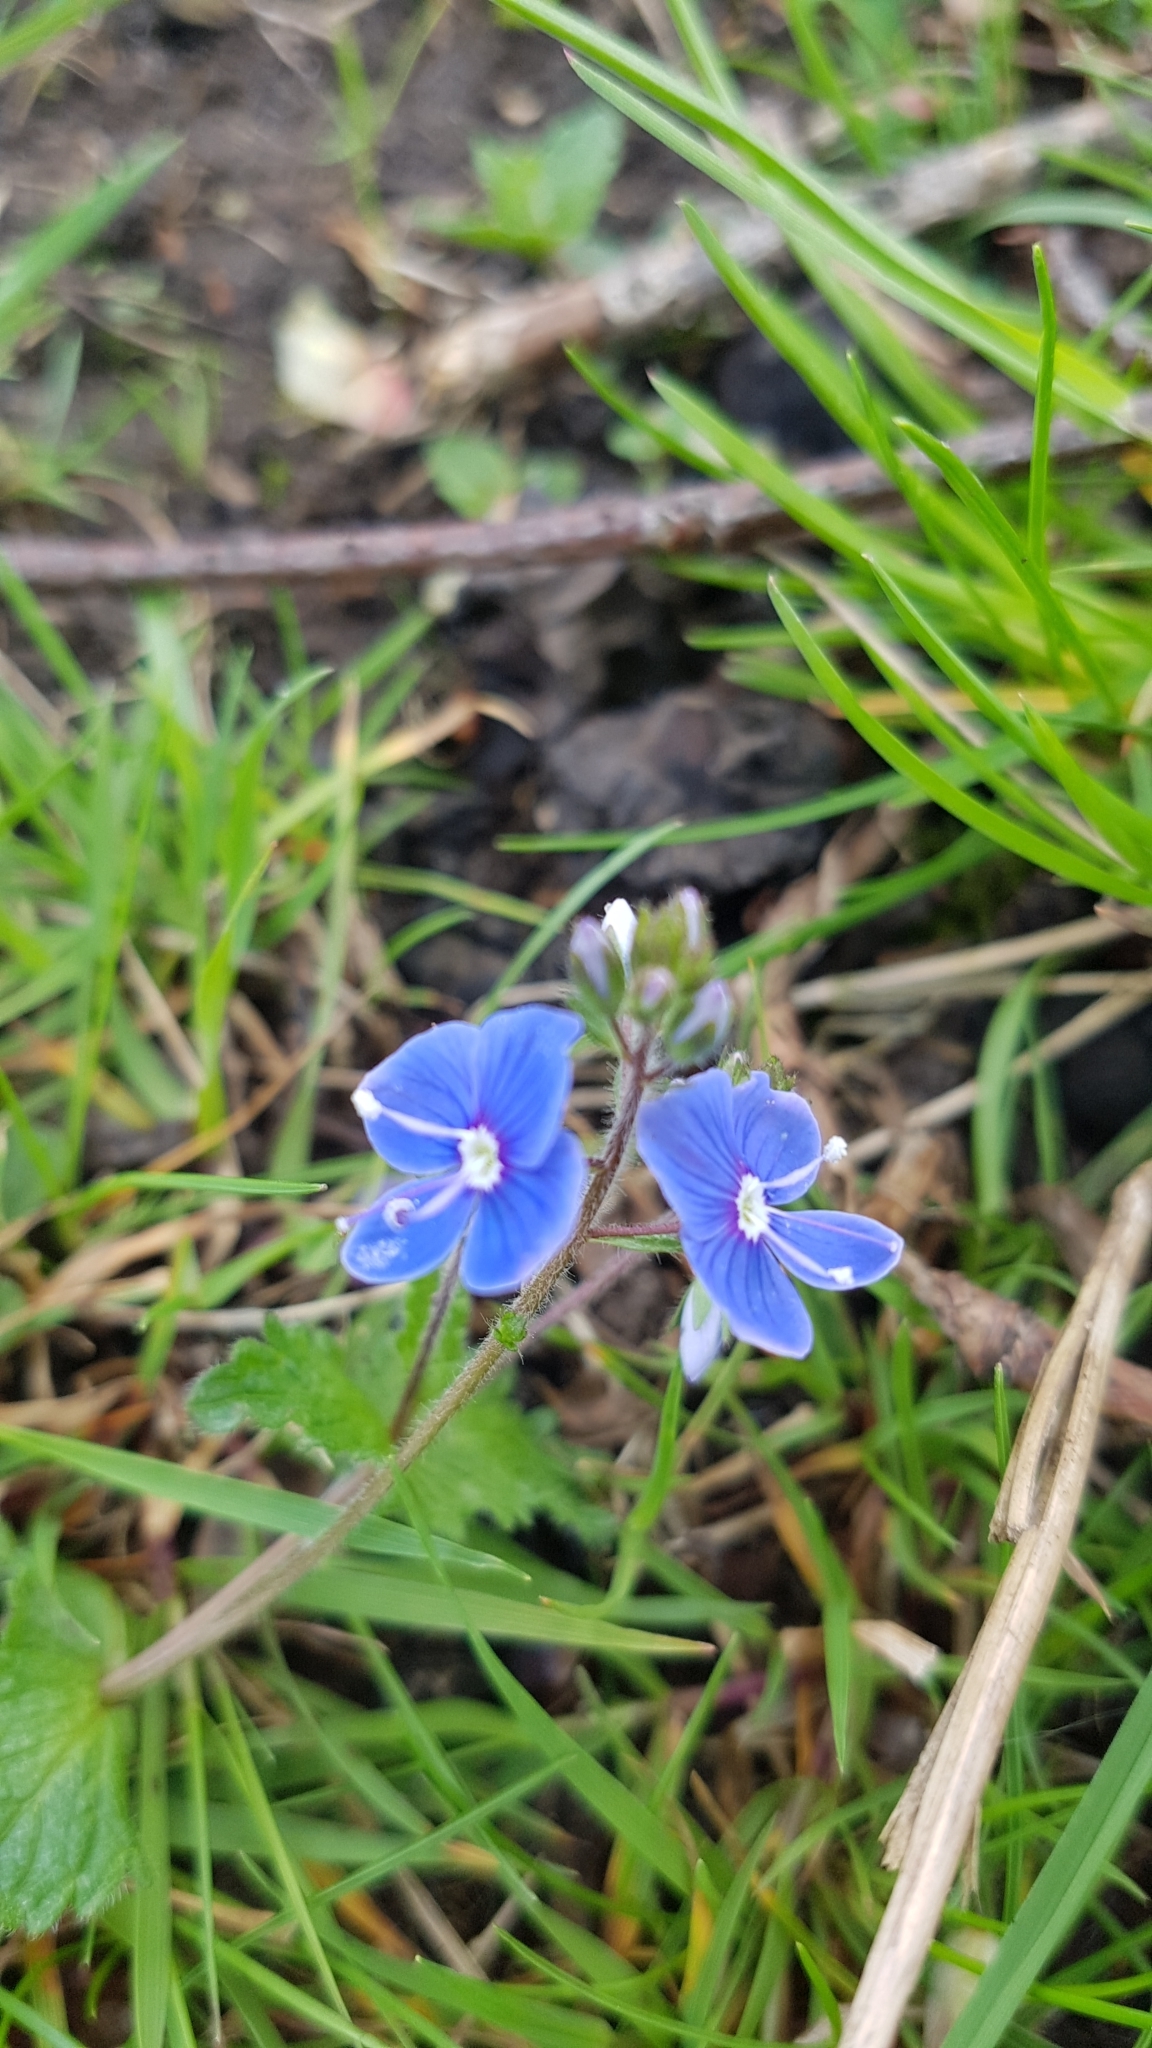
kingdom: Plantae
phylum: Tracheophyta
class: Magnoliopsida
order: Lamiales
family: Plantaginaceae
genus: Veronica
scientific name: Veronica chamaedrys
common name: Germander speedwell
